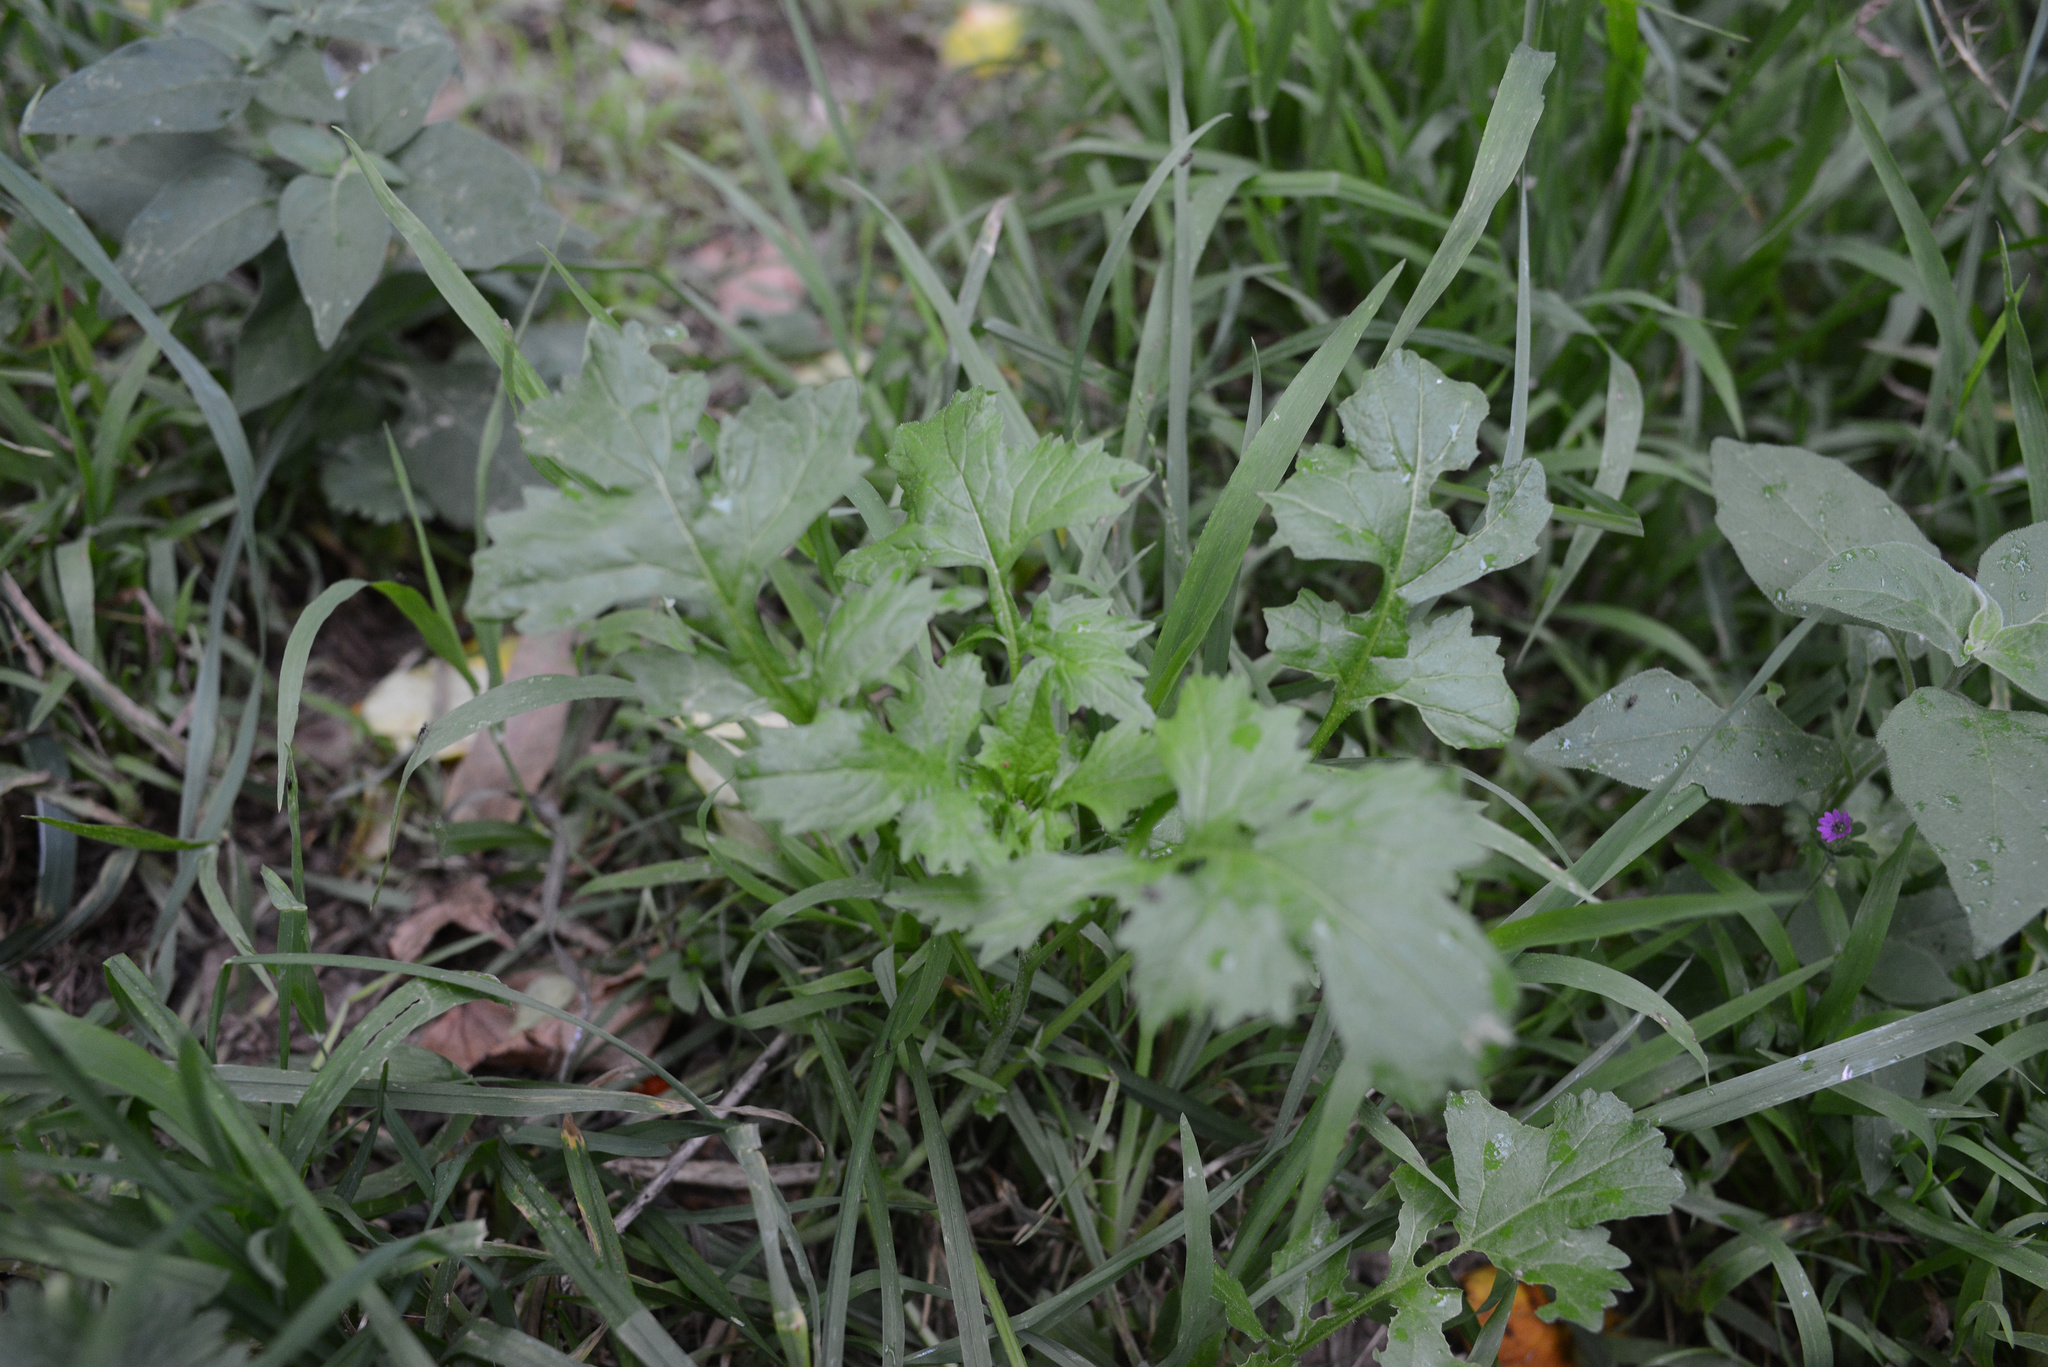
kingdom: Plantae
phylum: Tracheophyta
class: Magnoliopsida
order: Brassicales
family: Brassicaceae
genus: Sisymbrium
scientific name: Sisymbrium officinale
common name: Hedge mustard
